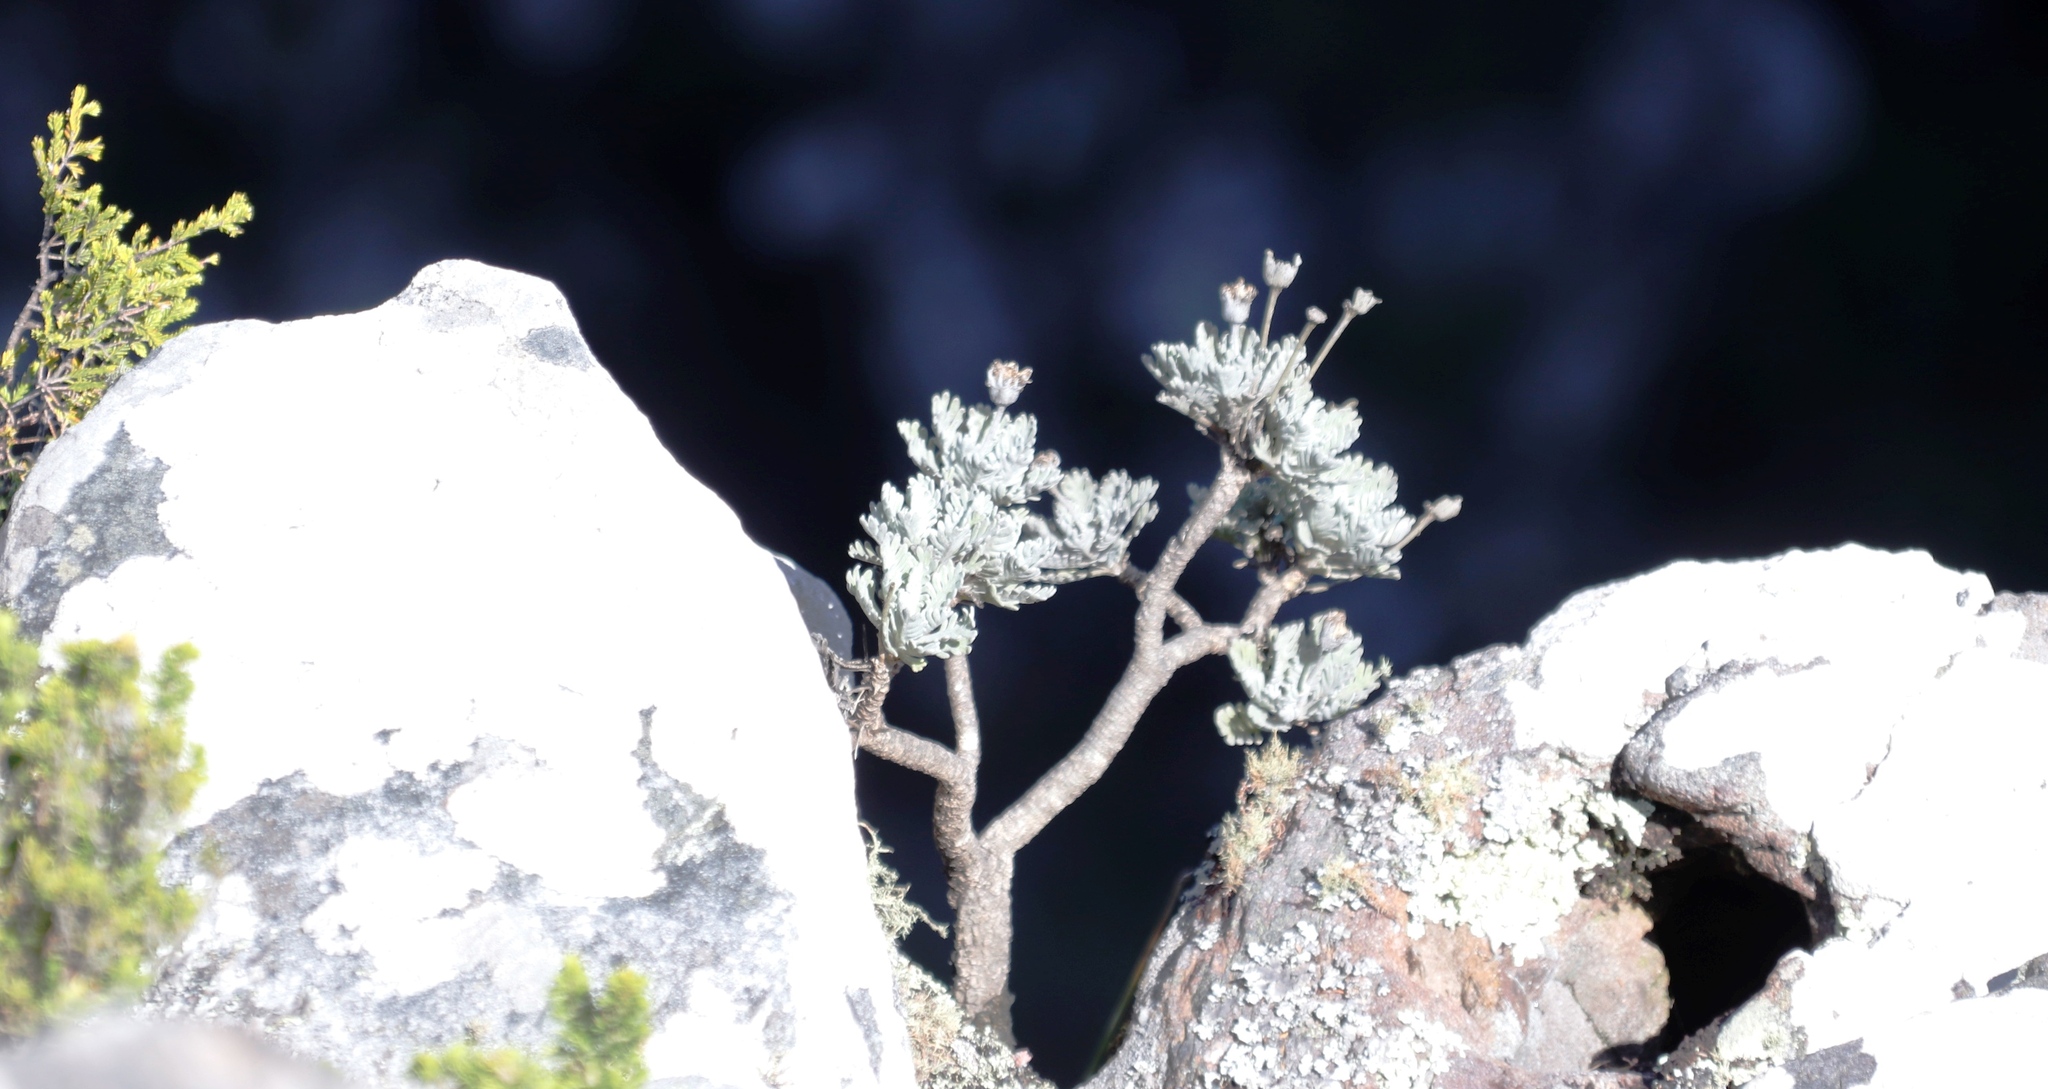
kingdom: Plantae
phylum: Tracheophyta
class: Magnoliopsida
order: Asterales
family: Asteraceae
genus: Euryops
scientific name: Euryops pectinatus
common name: Gray-leaf euryops
